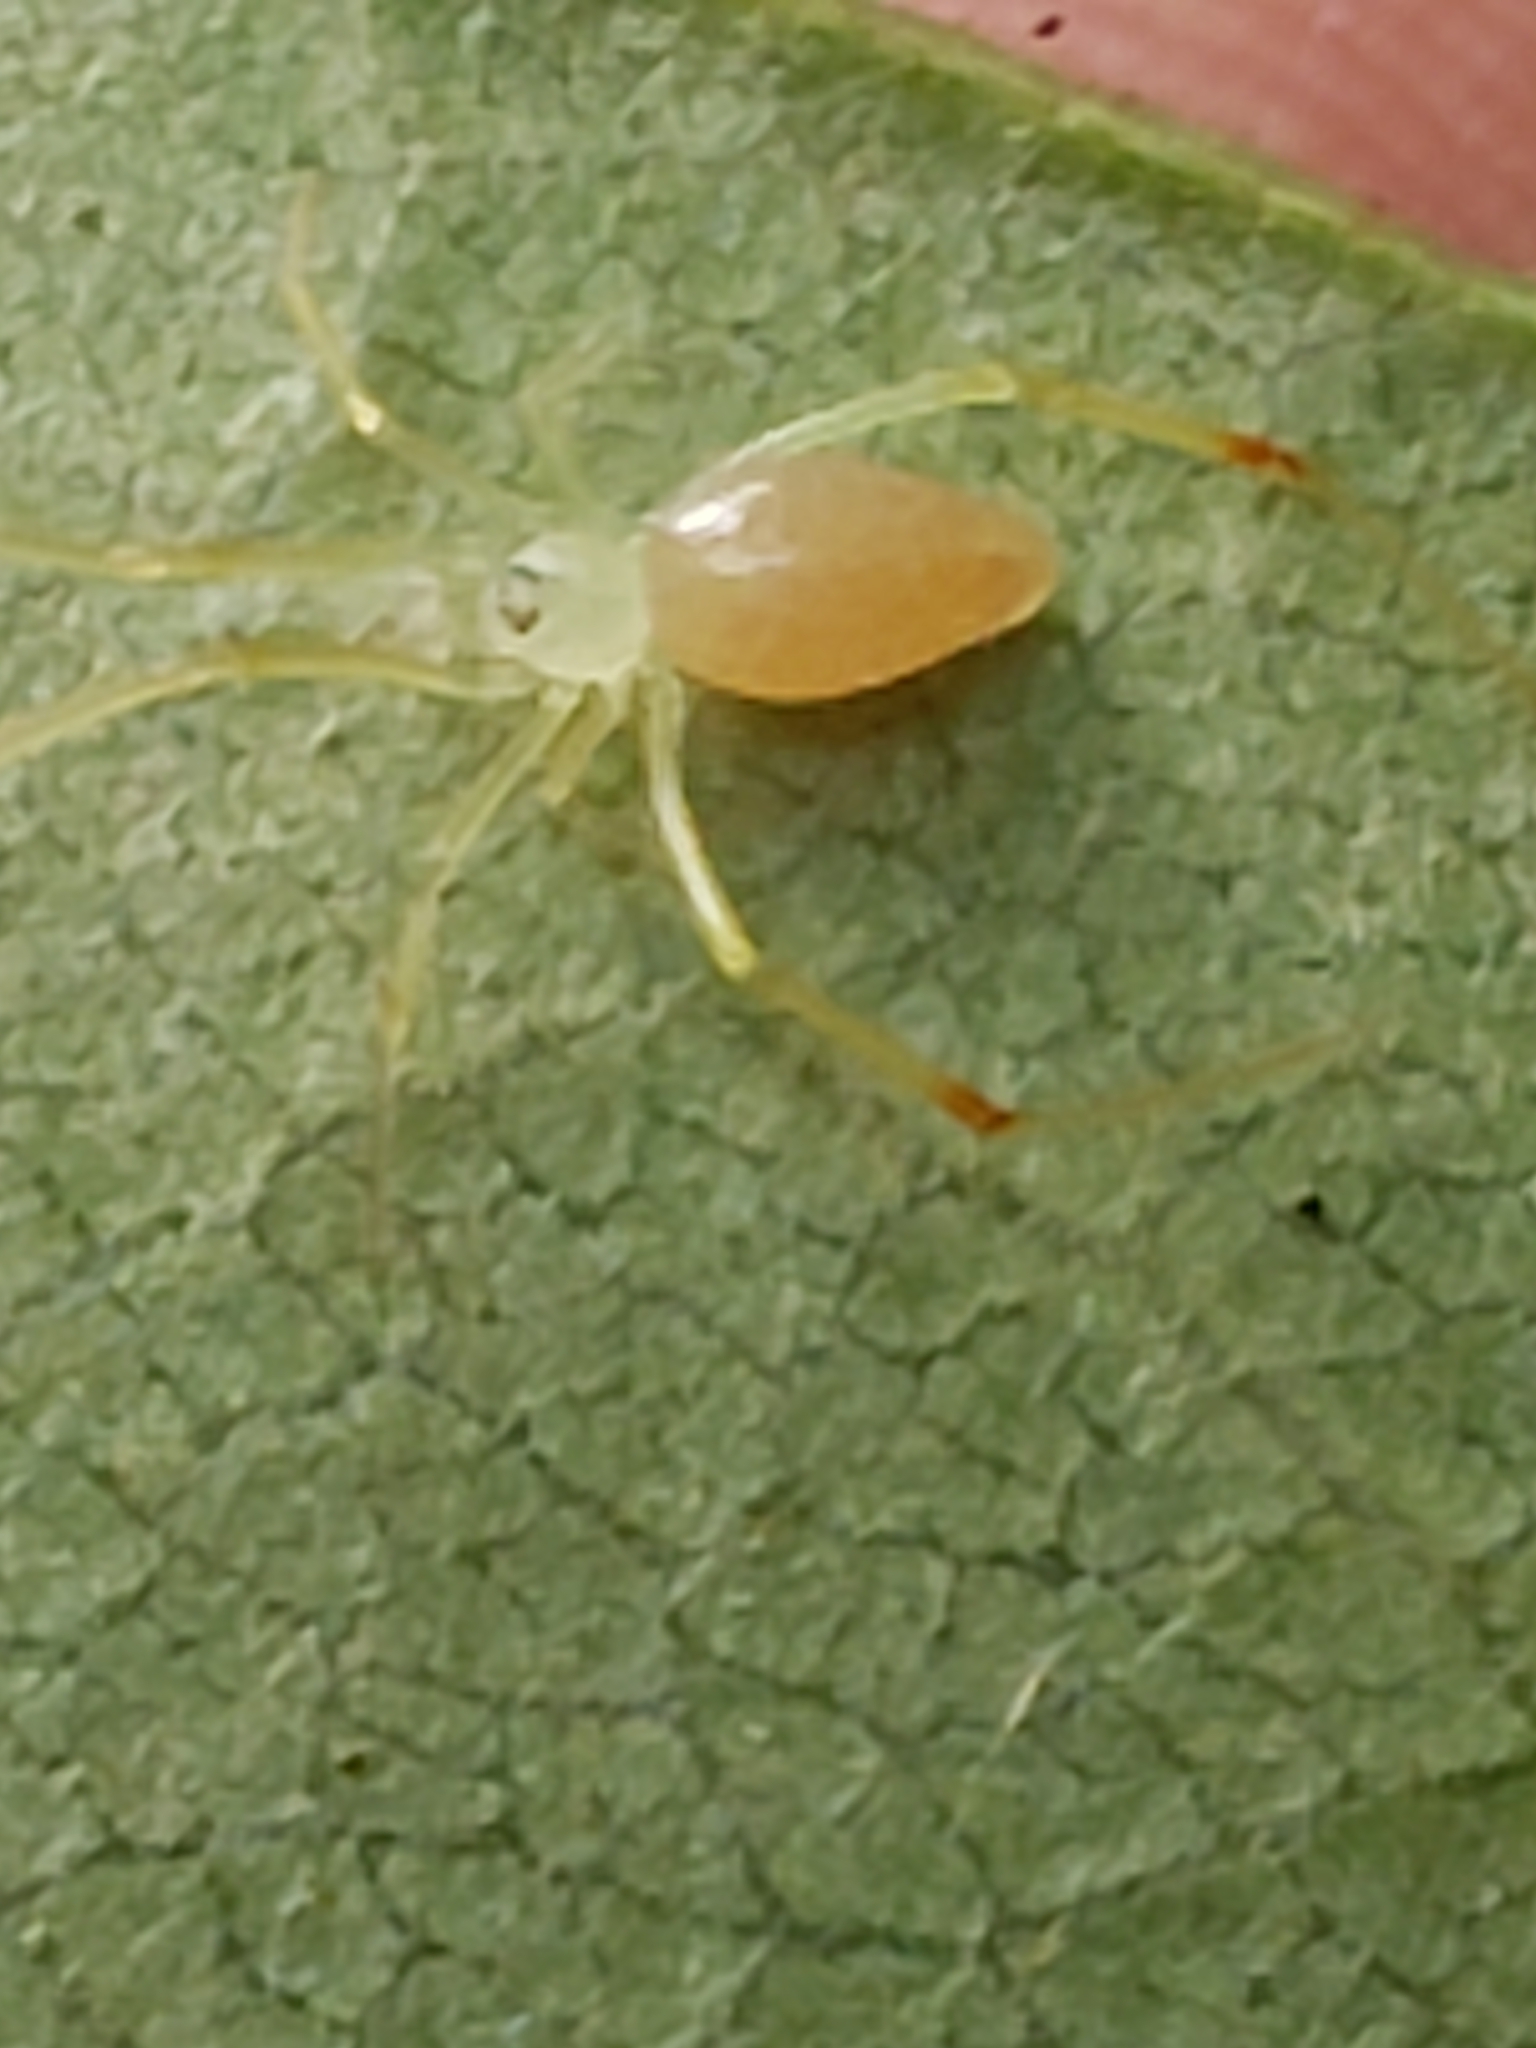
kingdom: Animalia
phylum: Arthropoda
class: Arachnida
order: Araneae
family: Theridiidae
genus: Spintharus
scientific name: Spintharus flavidus
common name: Cobweb spiders
